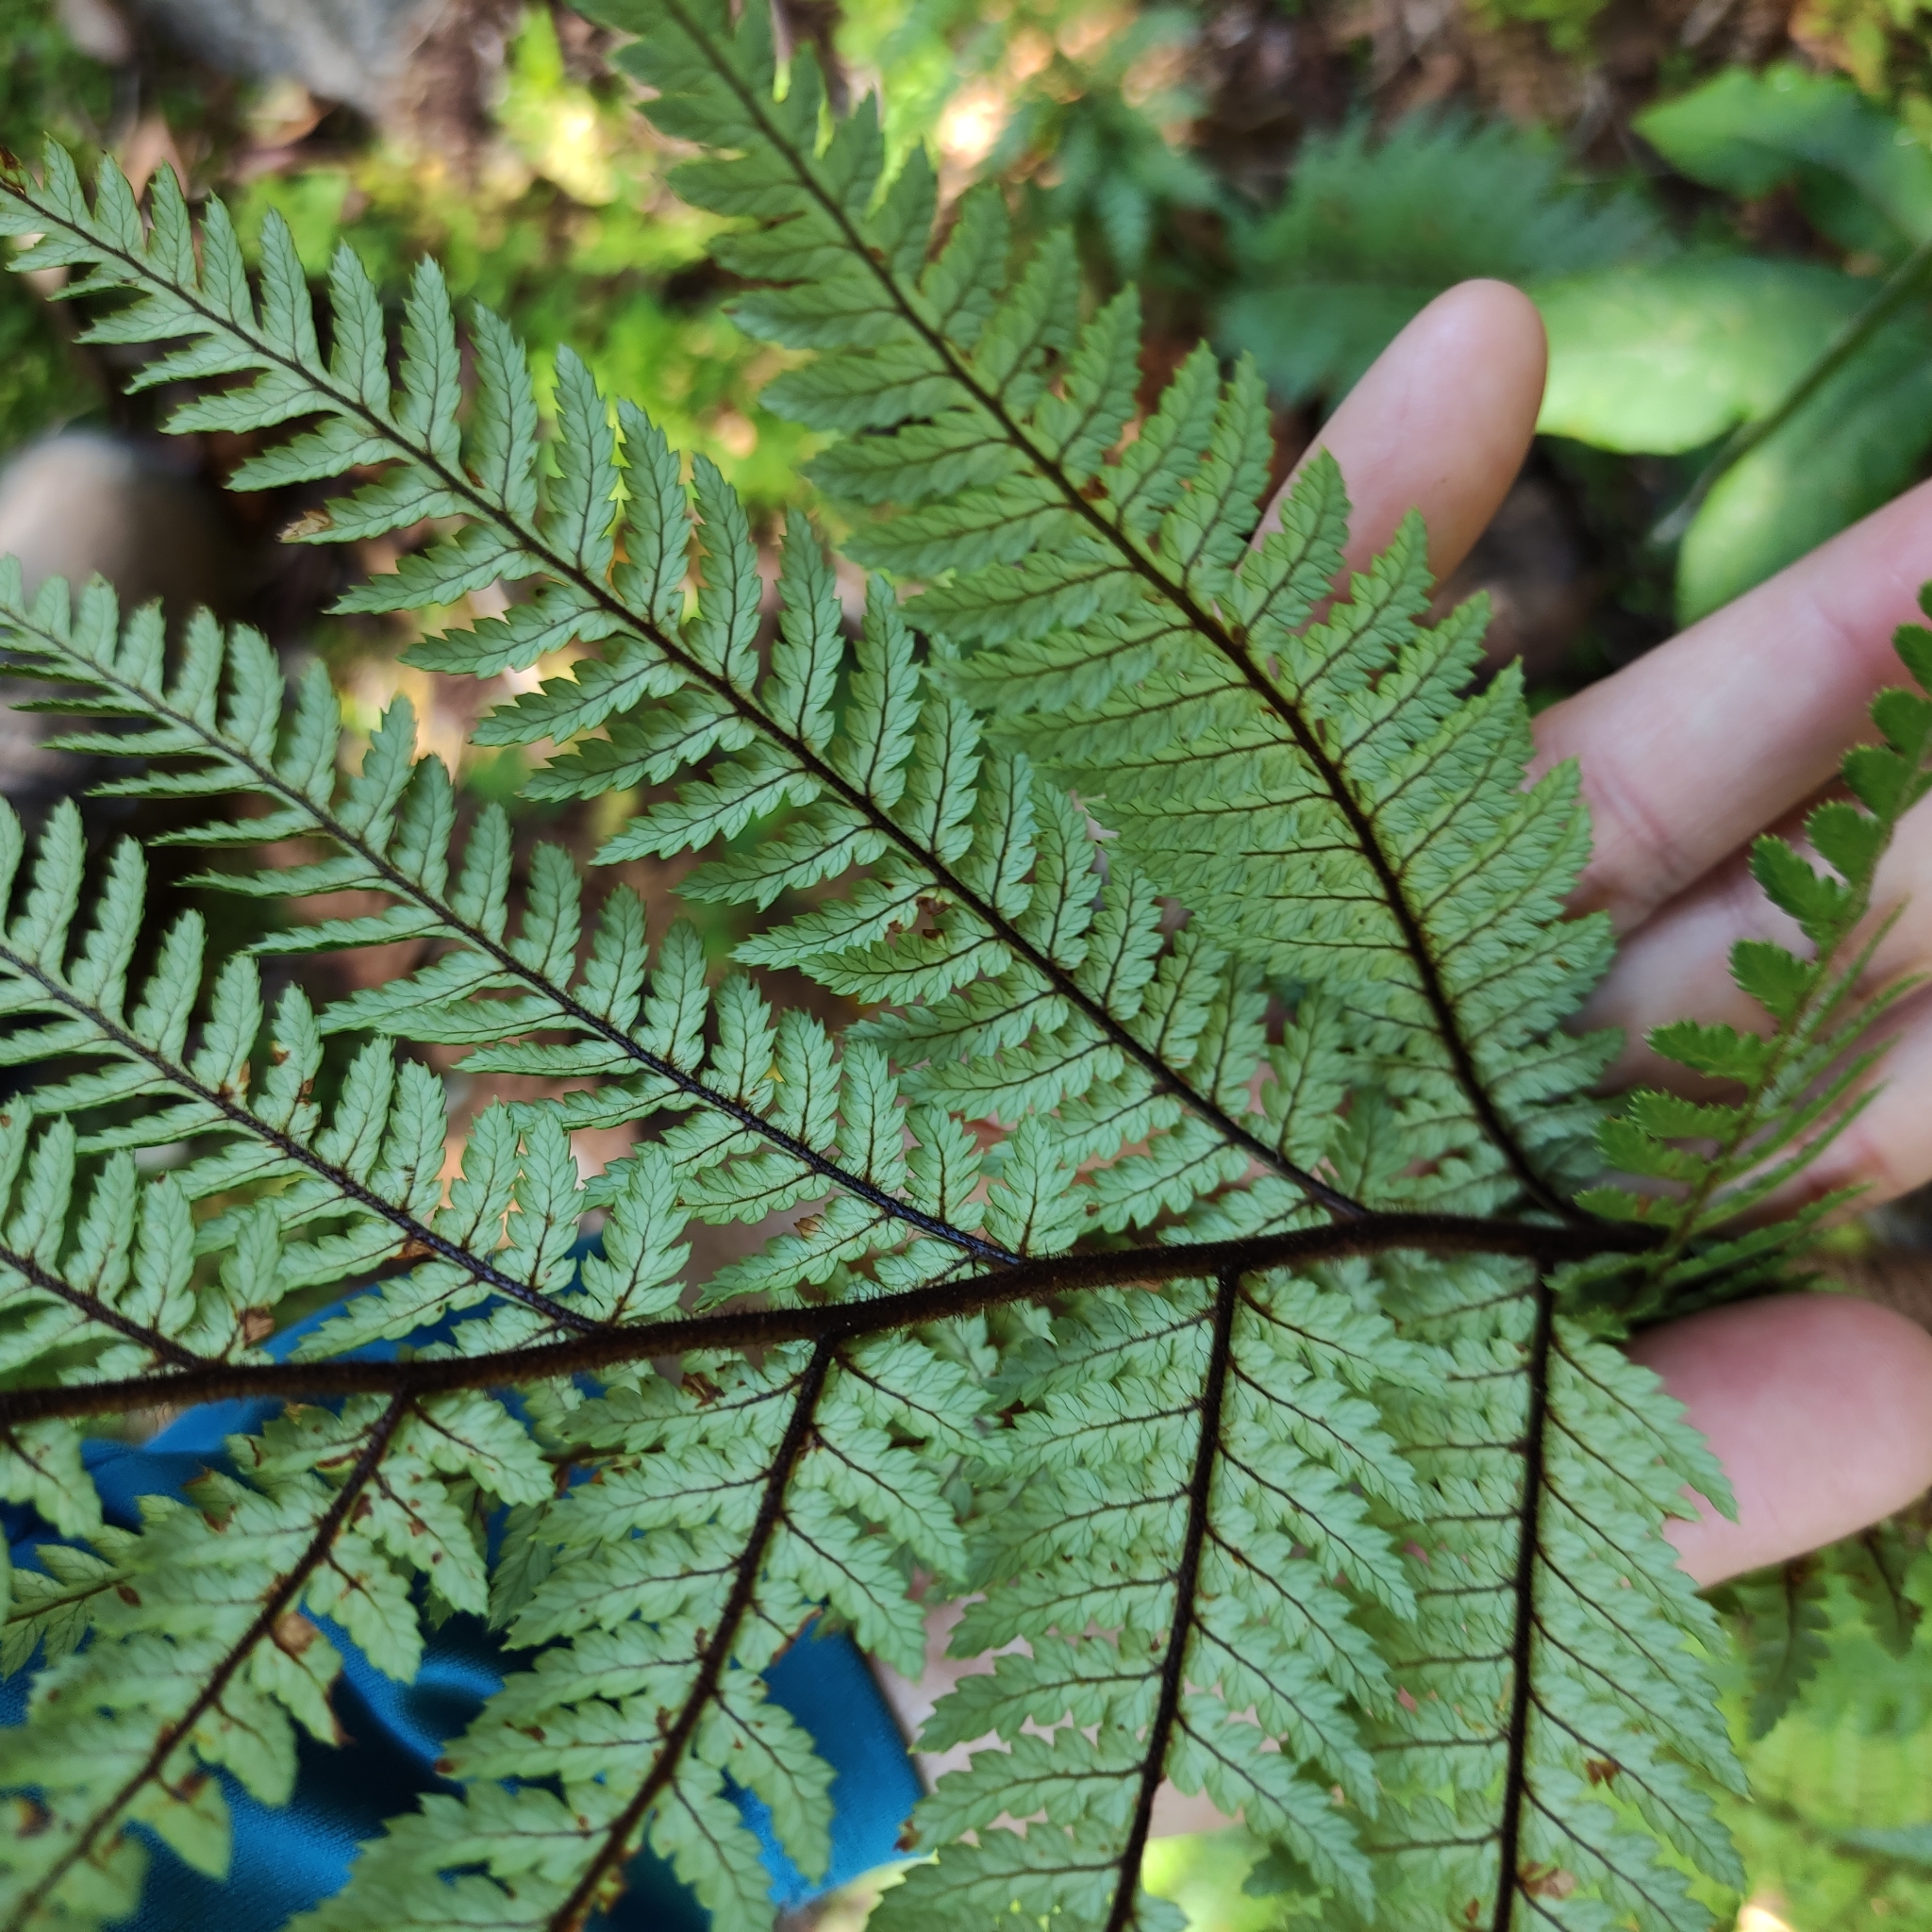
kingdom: Plantae
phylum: Tracheophyta
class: Polypodiopsida
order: Cyatheales
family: Dicksoniaceae
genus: Dicksonia
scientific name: Dicksonia squarrosa
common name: Hard treefern
